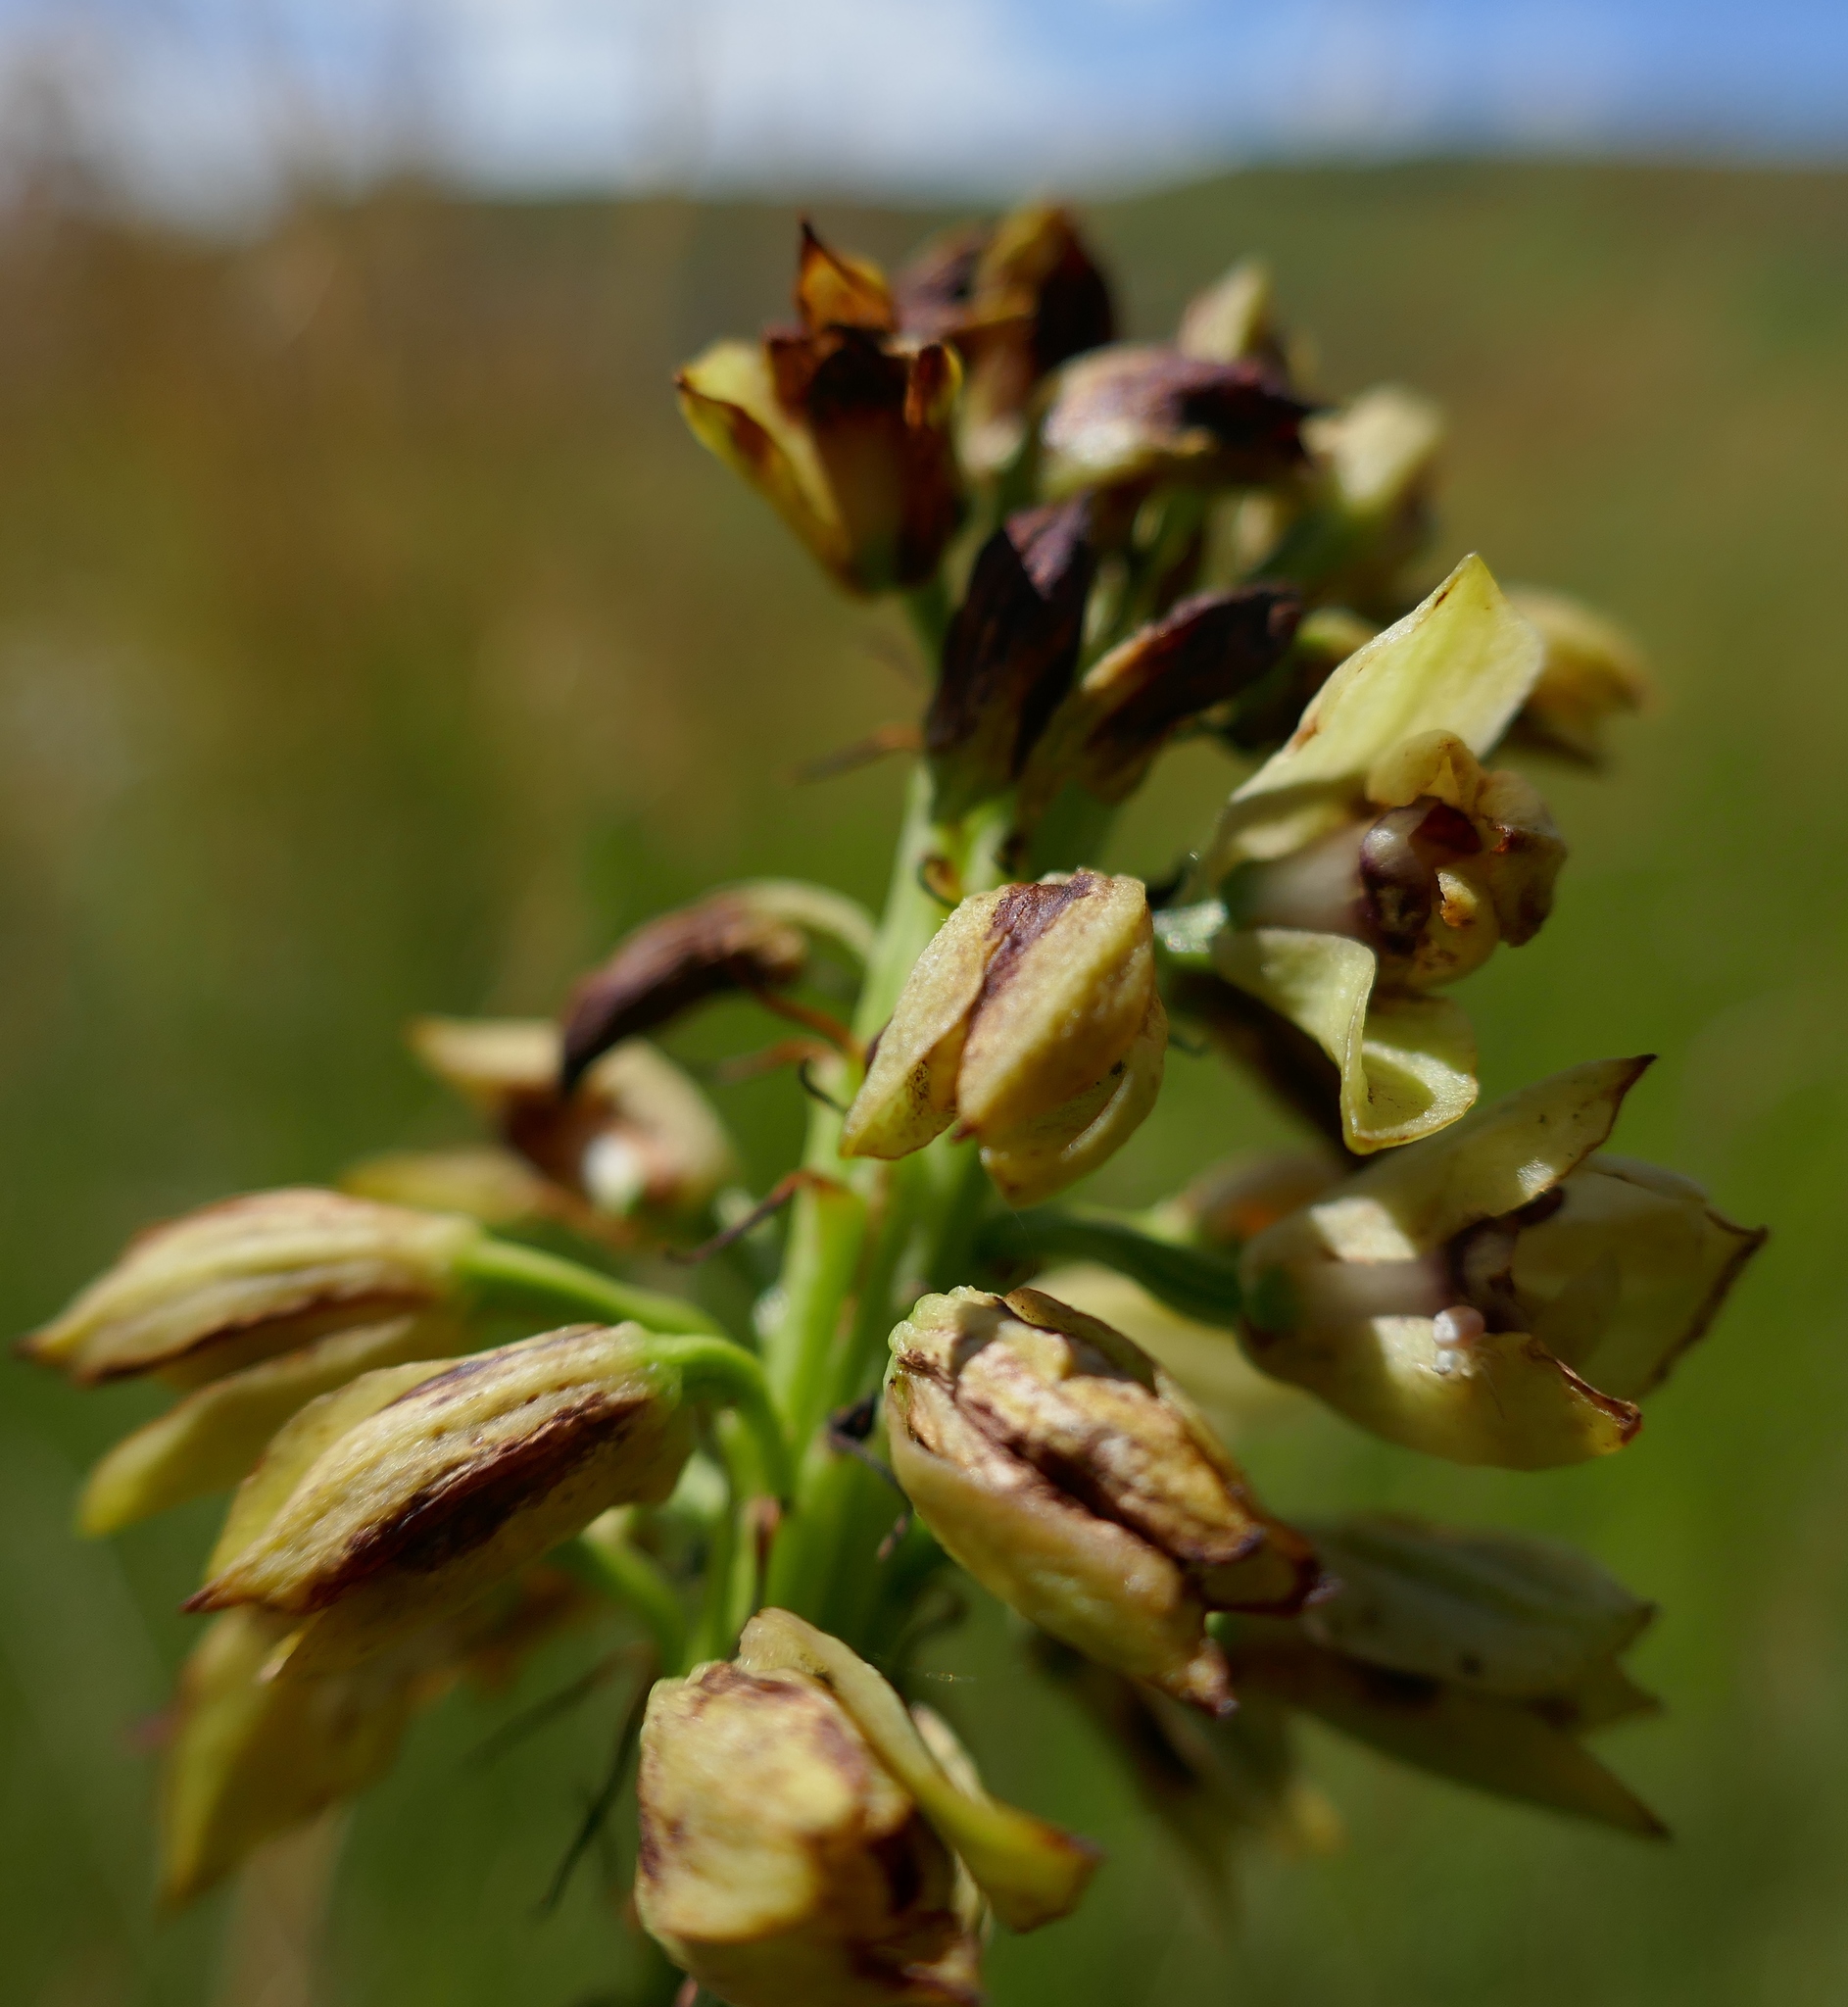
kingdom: Plantae
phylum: Tracheophyta
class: Liliopsida
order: Asparagales
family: Orchidaceae
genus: Eulophia
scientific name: Eulophia foliosa
